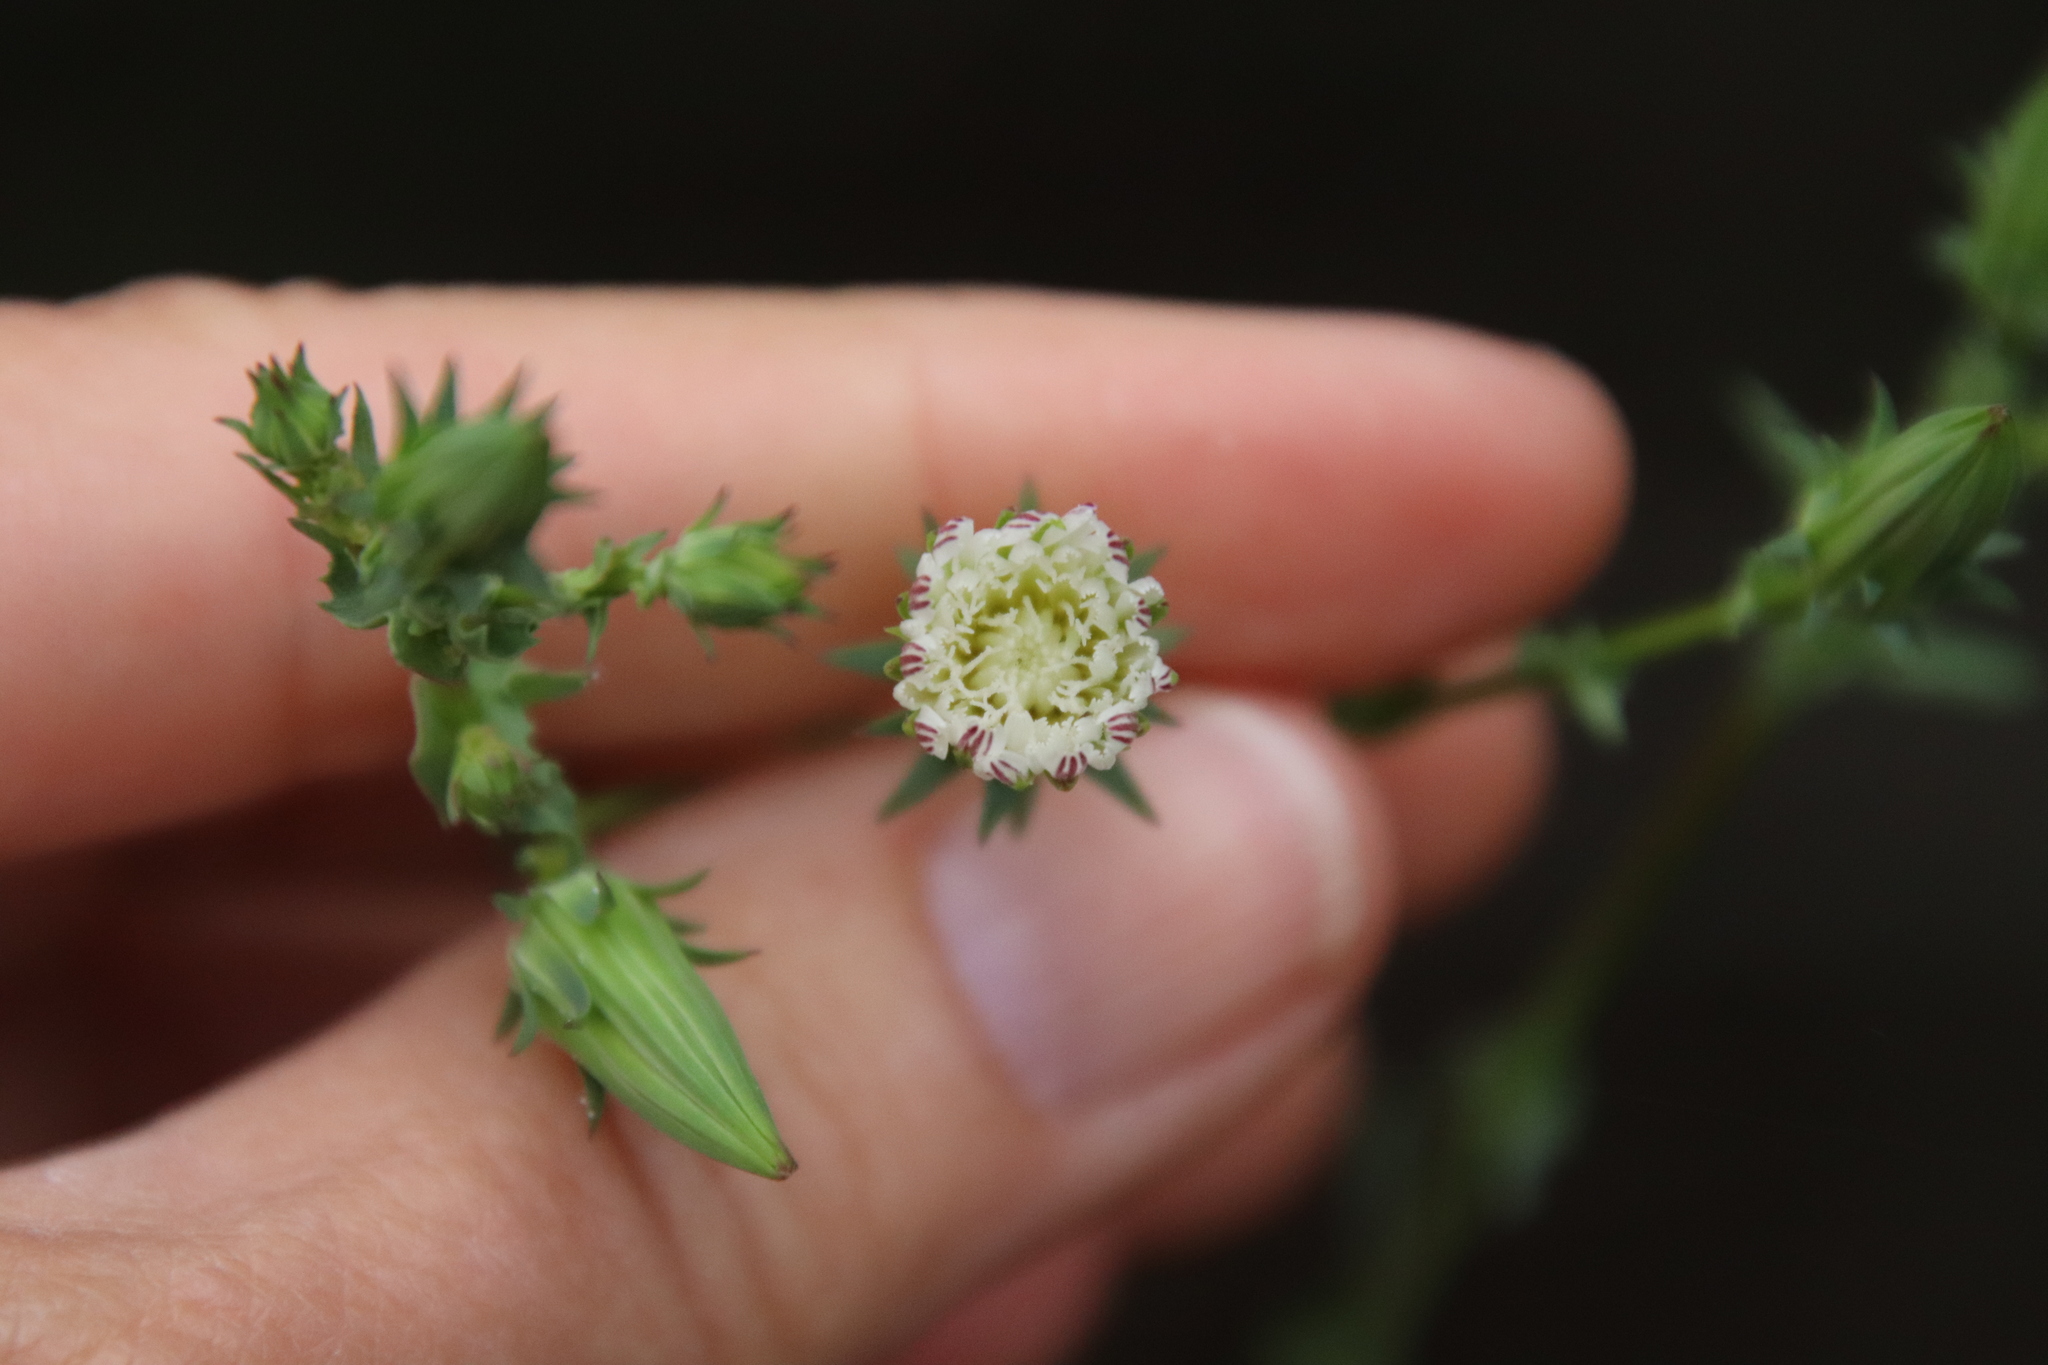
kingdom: Plantae
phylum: Tracheophyta
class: Magnoliopsida
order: Asterales
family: Asteraceae
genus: Rafinesquia
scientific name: Rafinesquia californica
